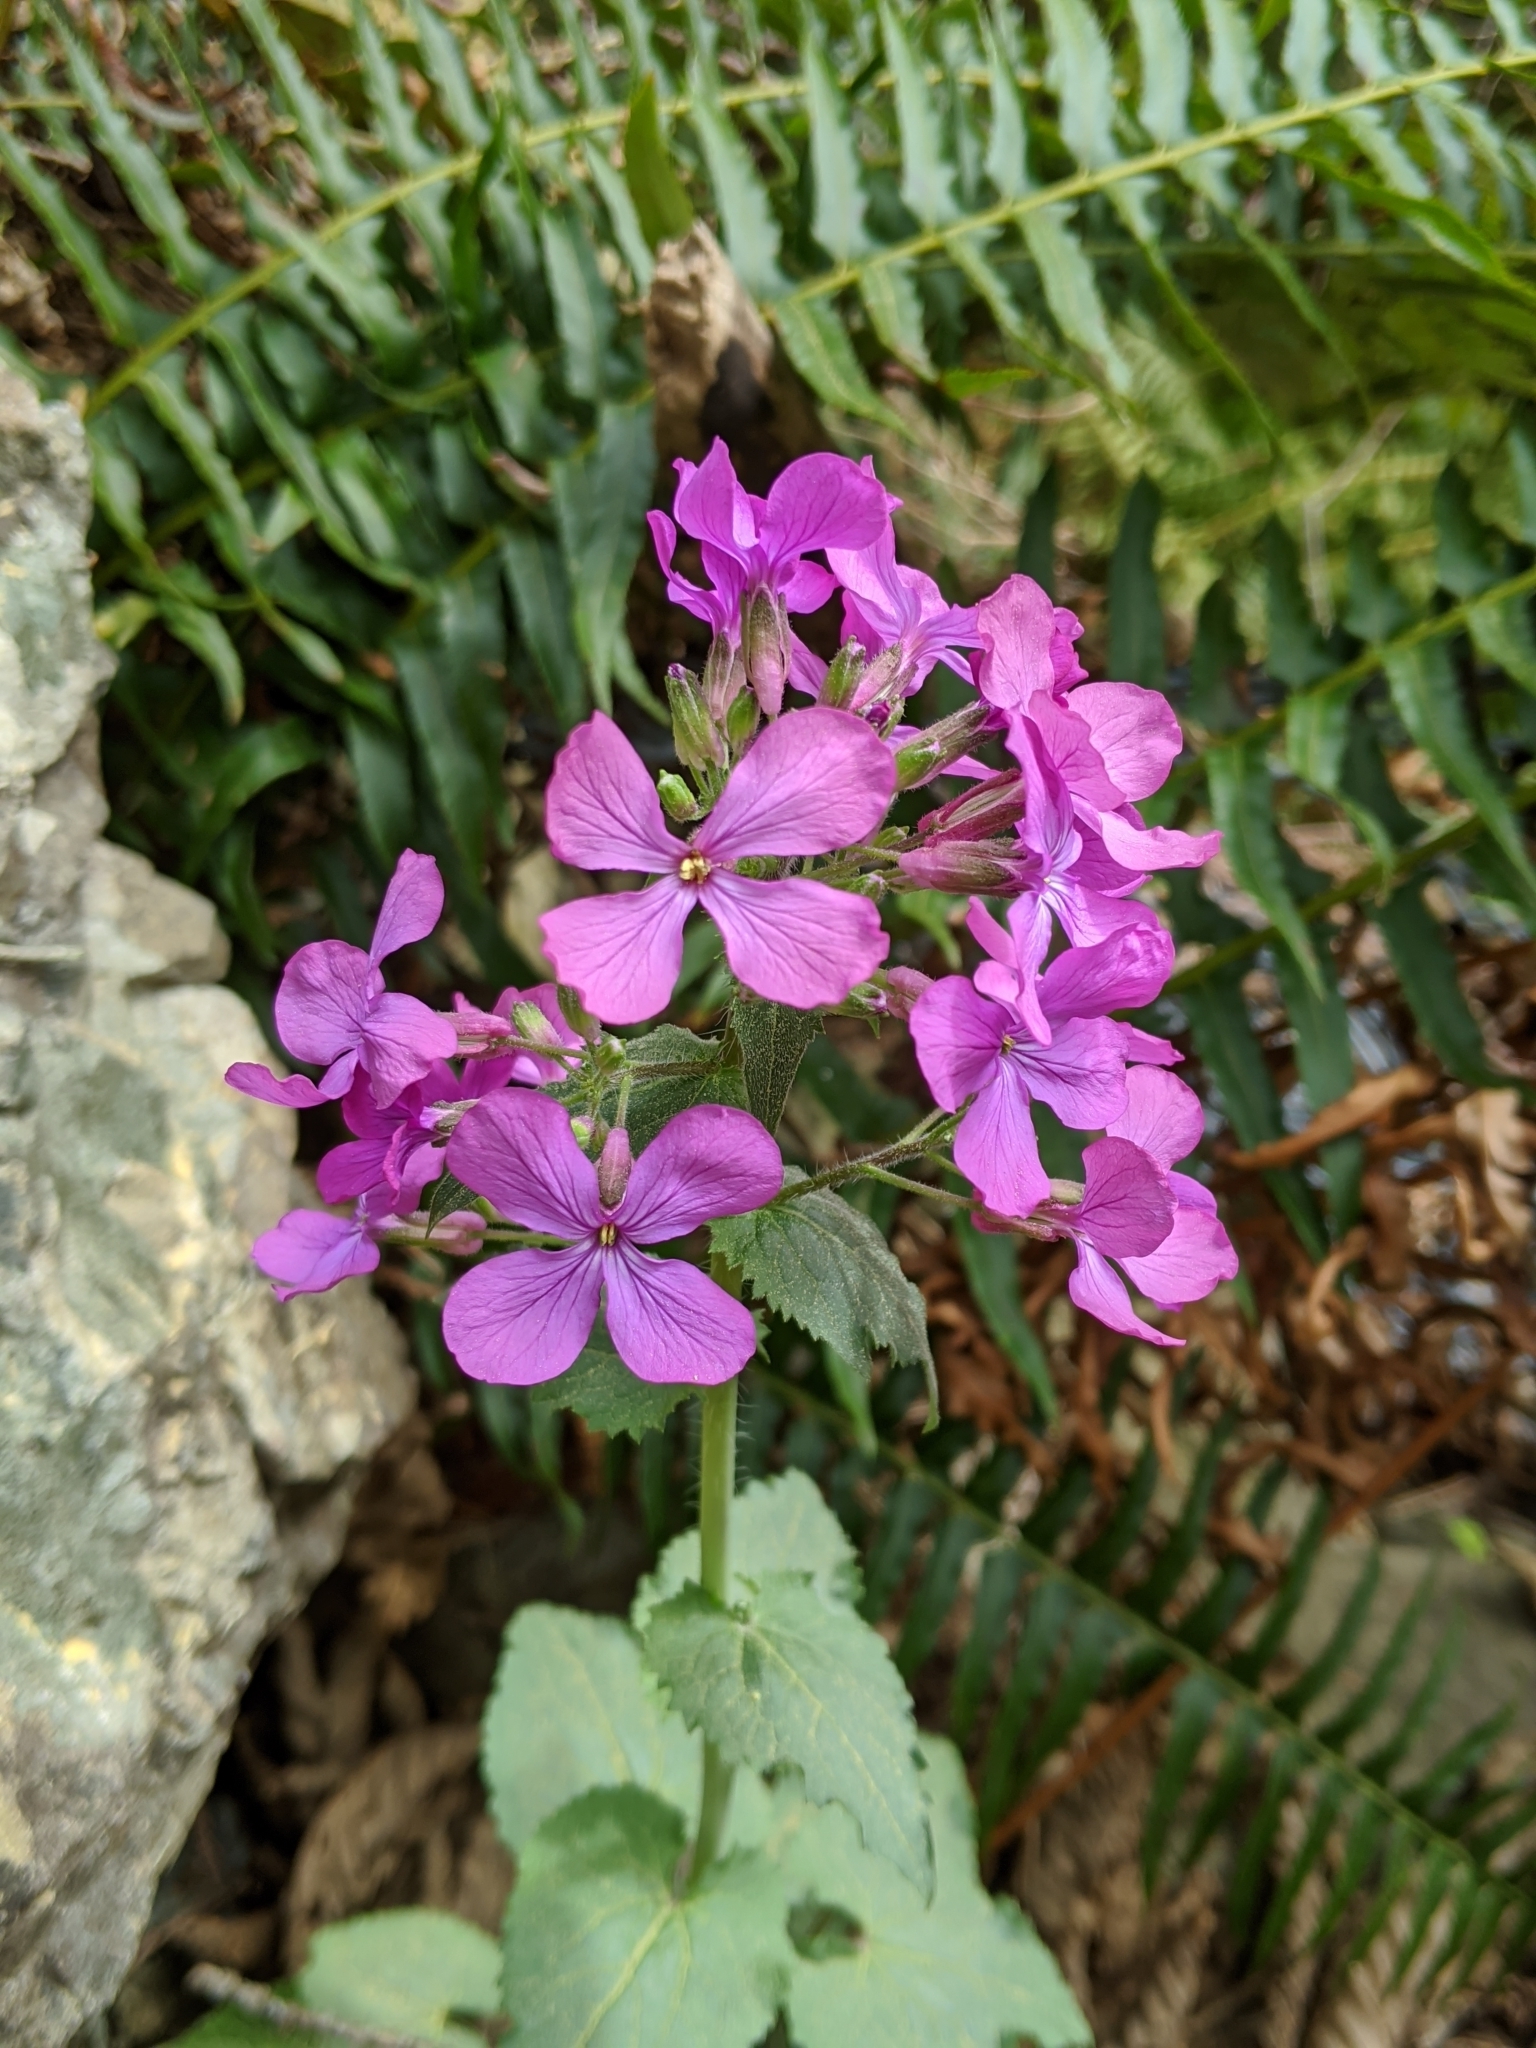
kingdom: Plantae
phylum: Tracheophyta
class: Magnoliopsida
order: Brassicales
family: Brassicaceae
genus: Lunaria
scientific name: Lunaria annua
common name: Honesty
